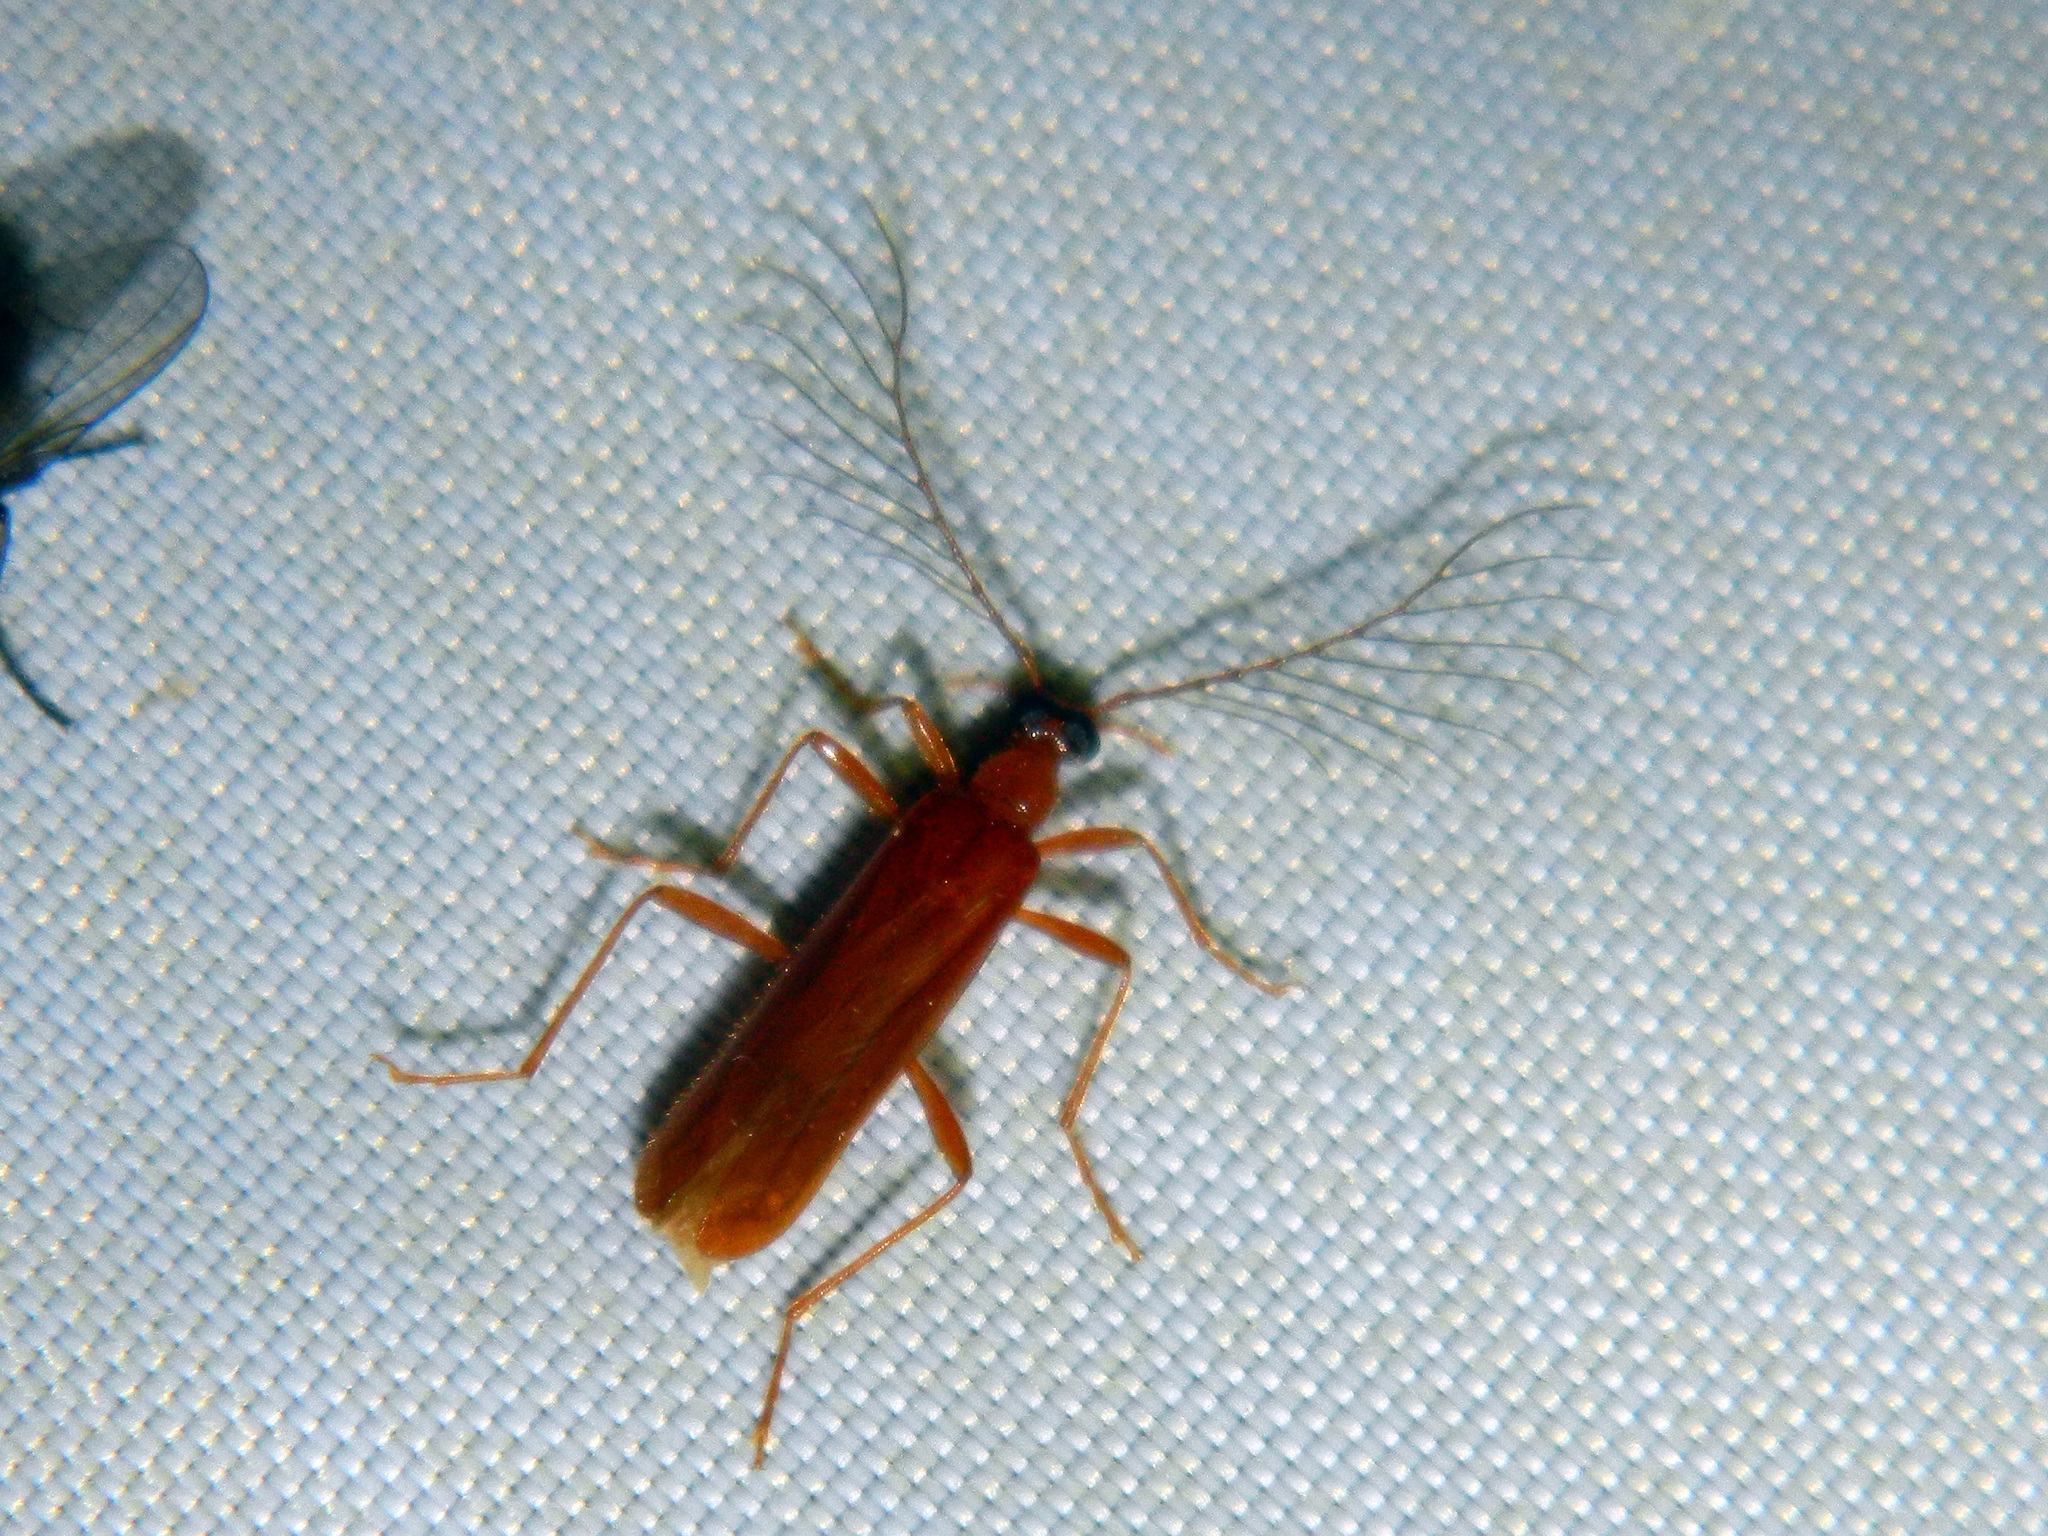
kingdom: Animalia
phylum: Arthropoda
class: Insecta
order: Coleoptera
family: Pyrochroidae
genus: Dendroides
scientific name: Dendroides concolor
